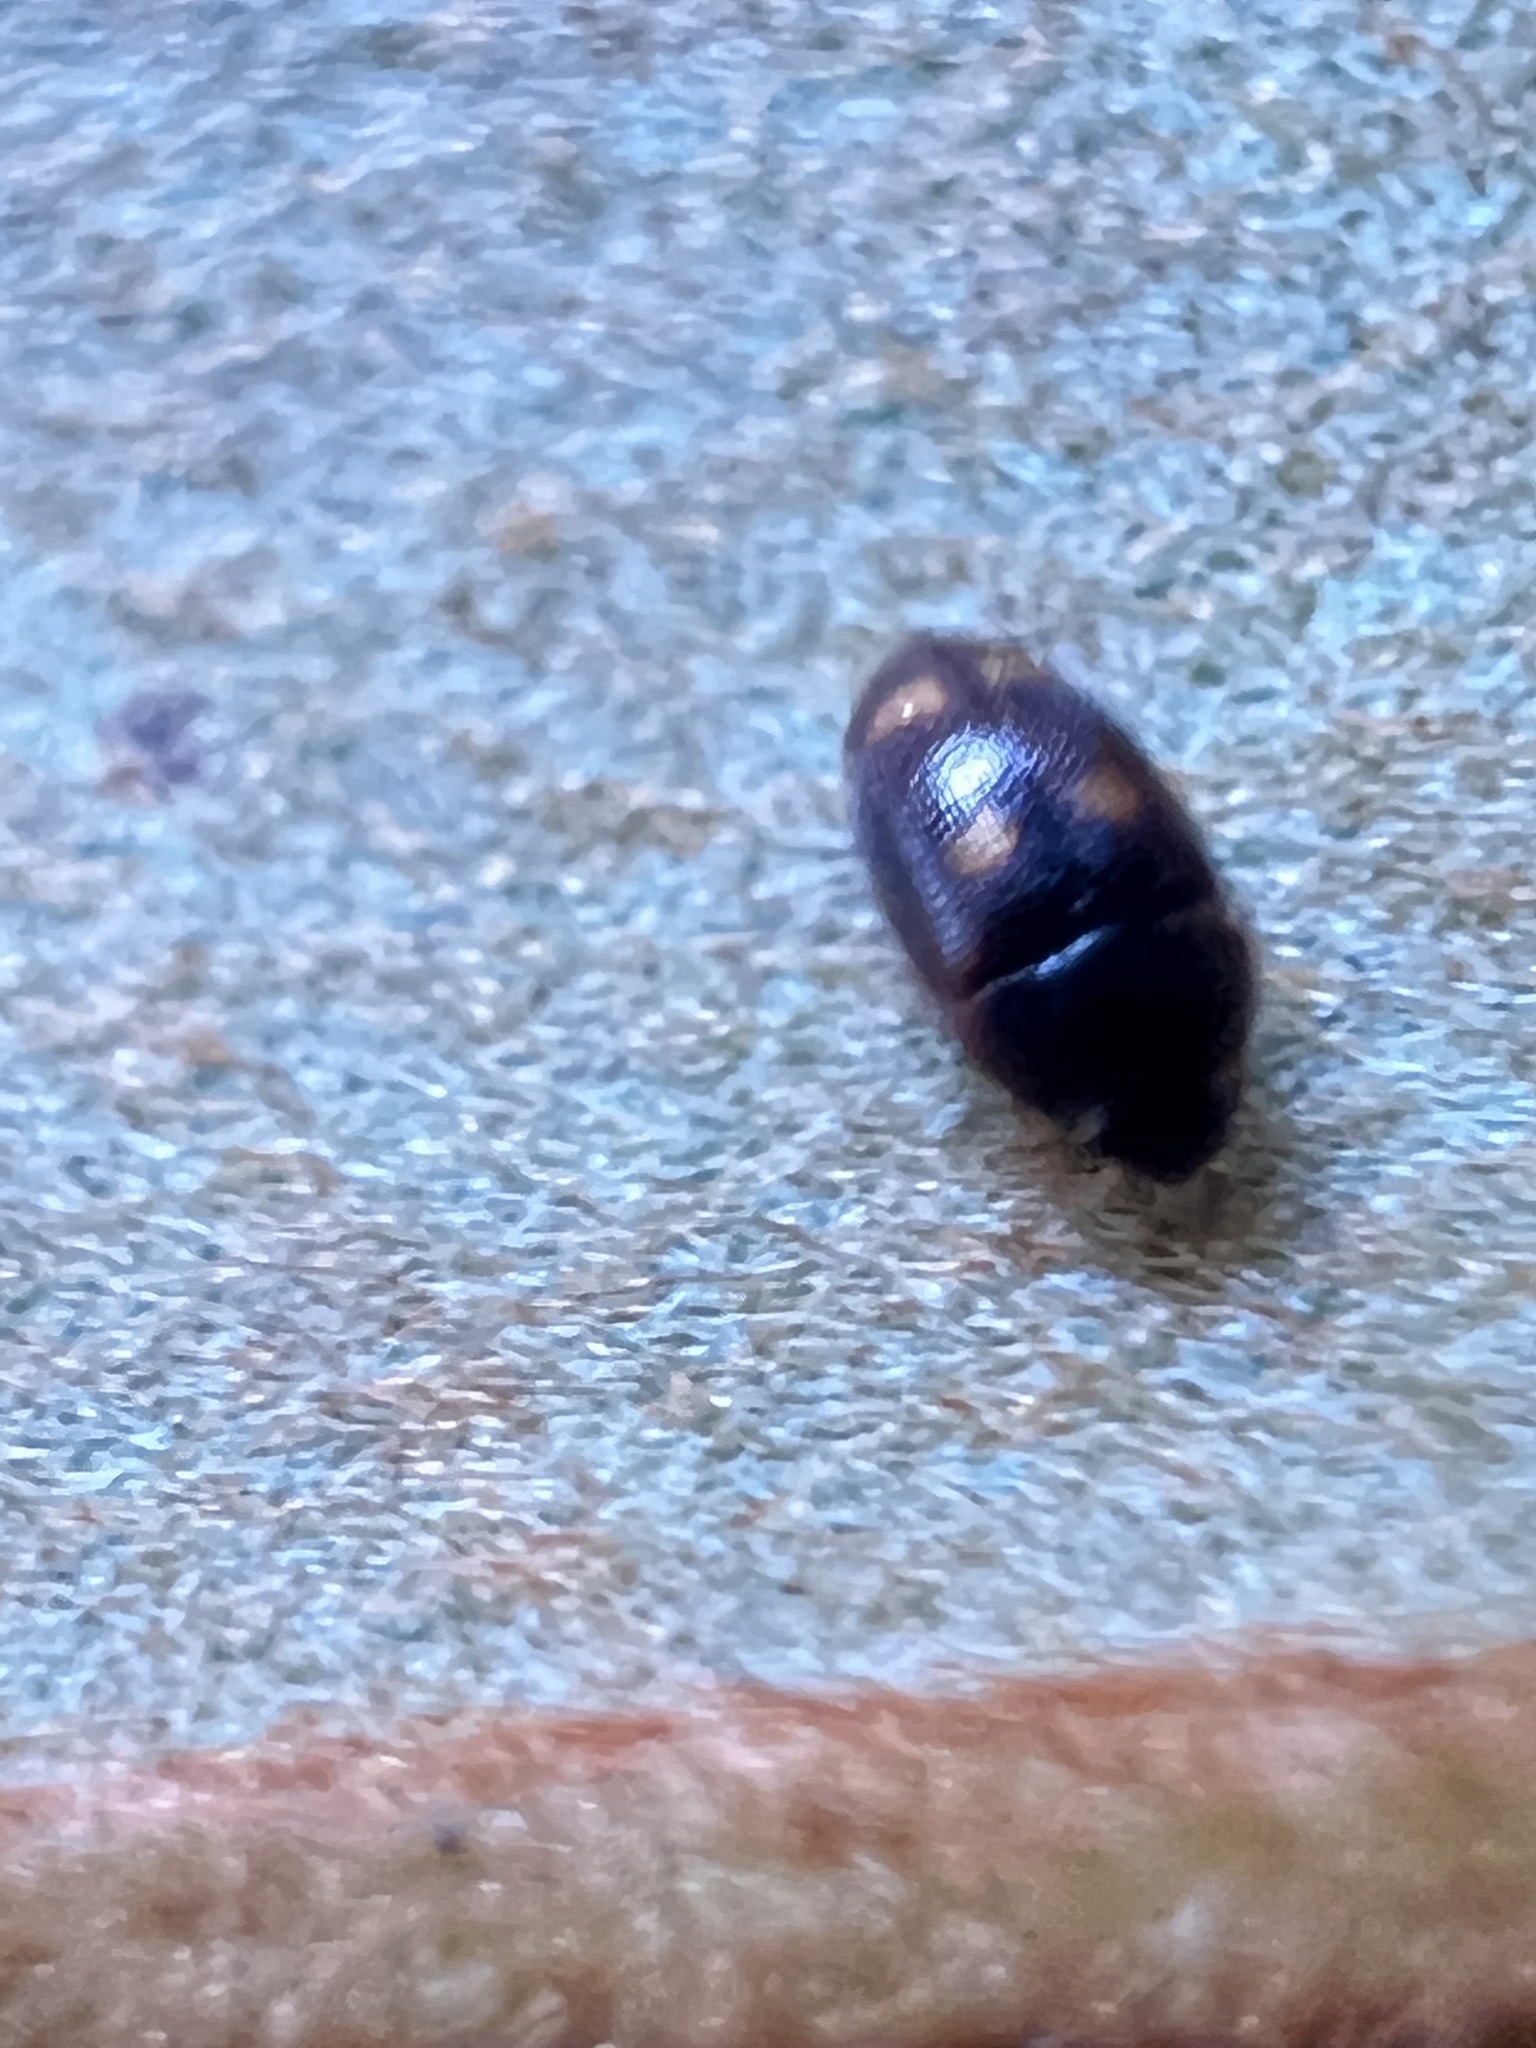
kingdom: Animalia
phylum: Arthropoda
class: Insecta
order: Coleoptera
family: Mycetophagidae
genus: Litargus
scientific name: Litargus tetraspilotus
